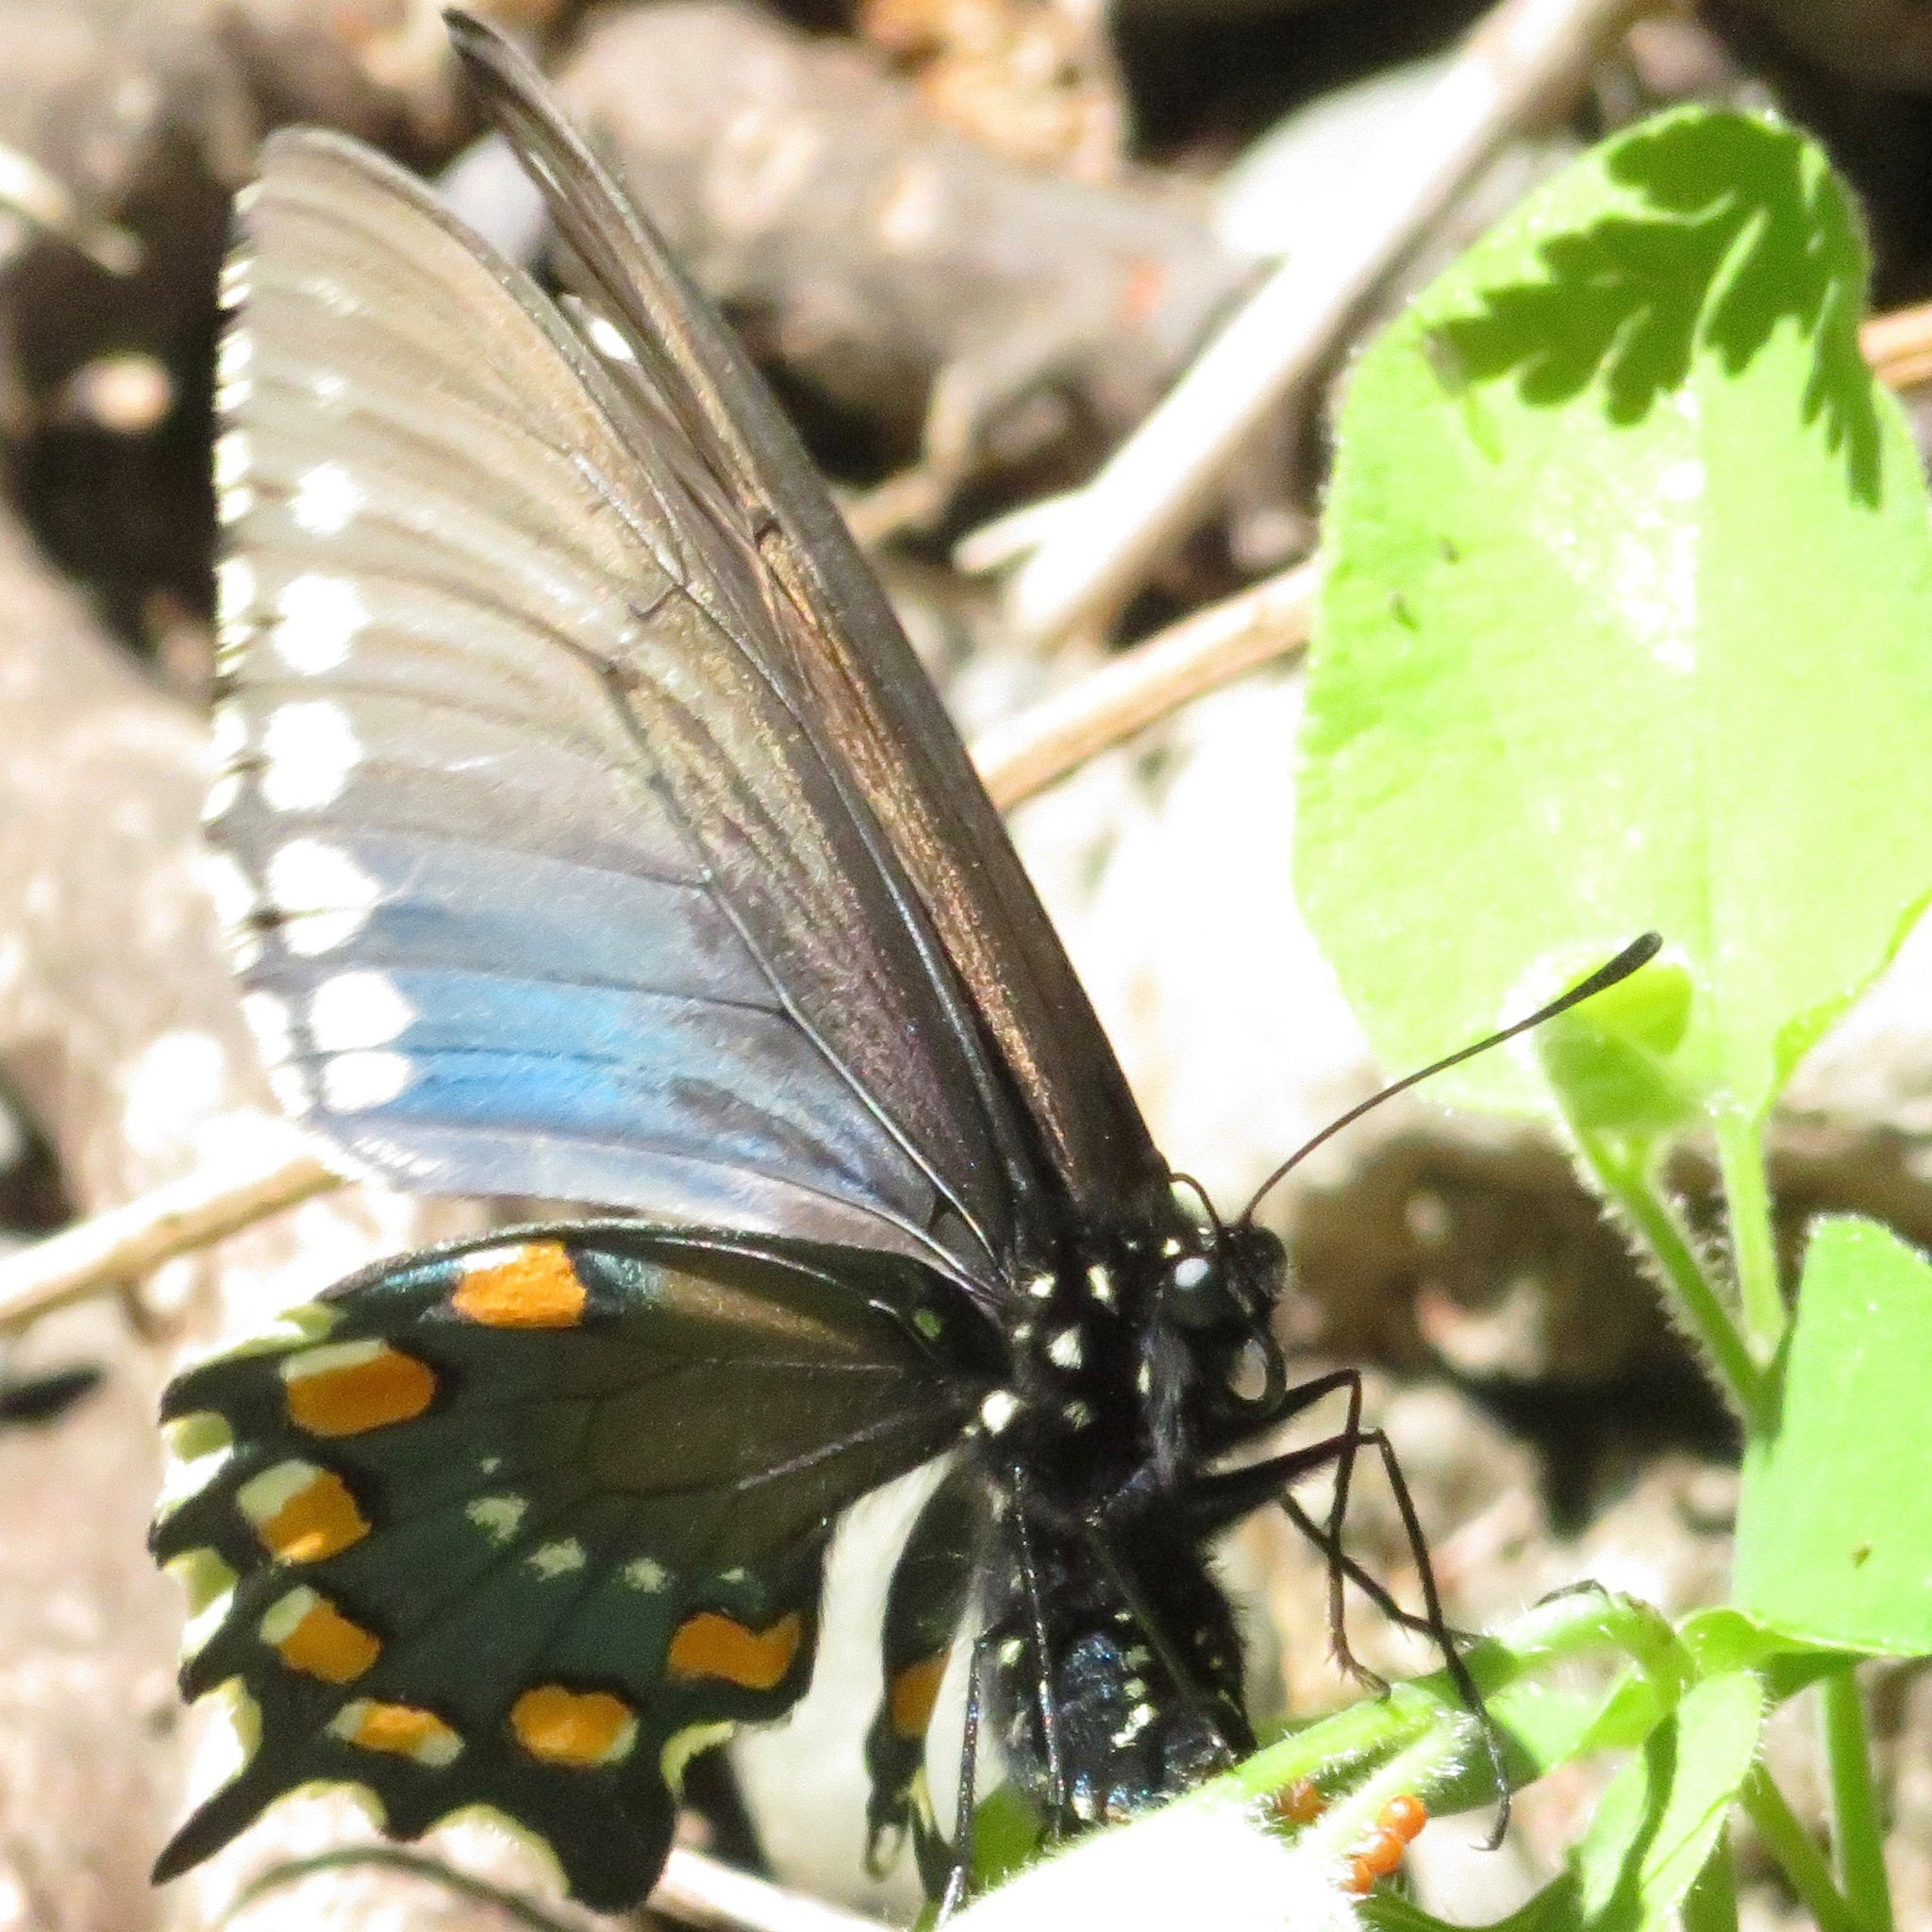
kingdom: Animalia
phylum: Arthropoda
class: Insecta
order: Lepidoptera
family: Papilionidae
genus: Battus
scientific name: Battus philenor
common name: Pipevine swallowtail
